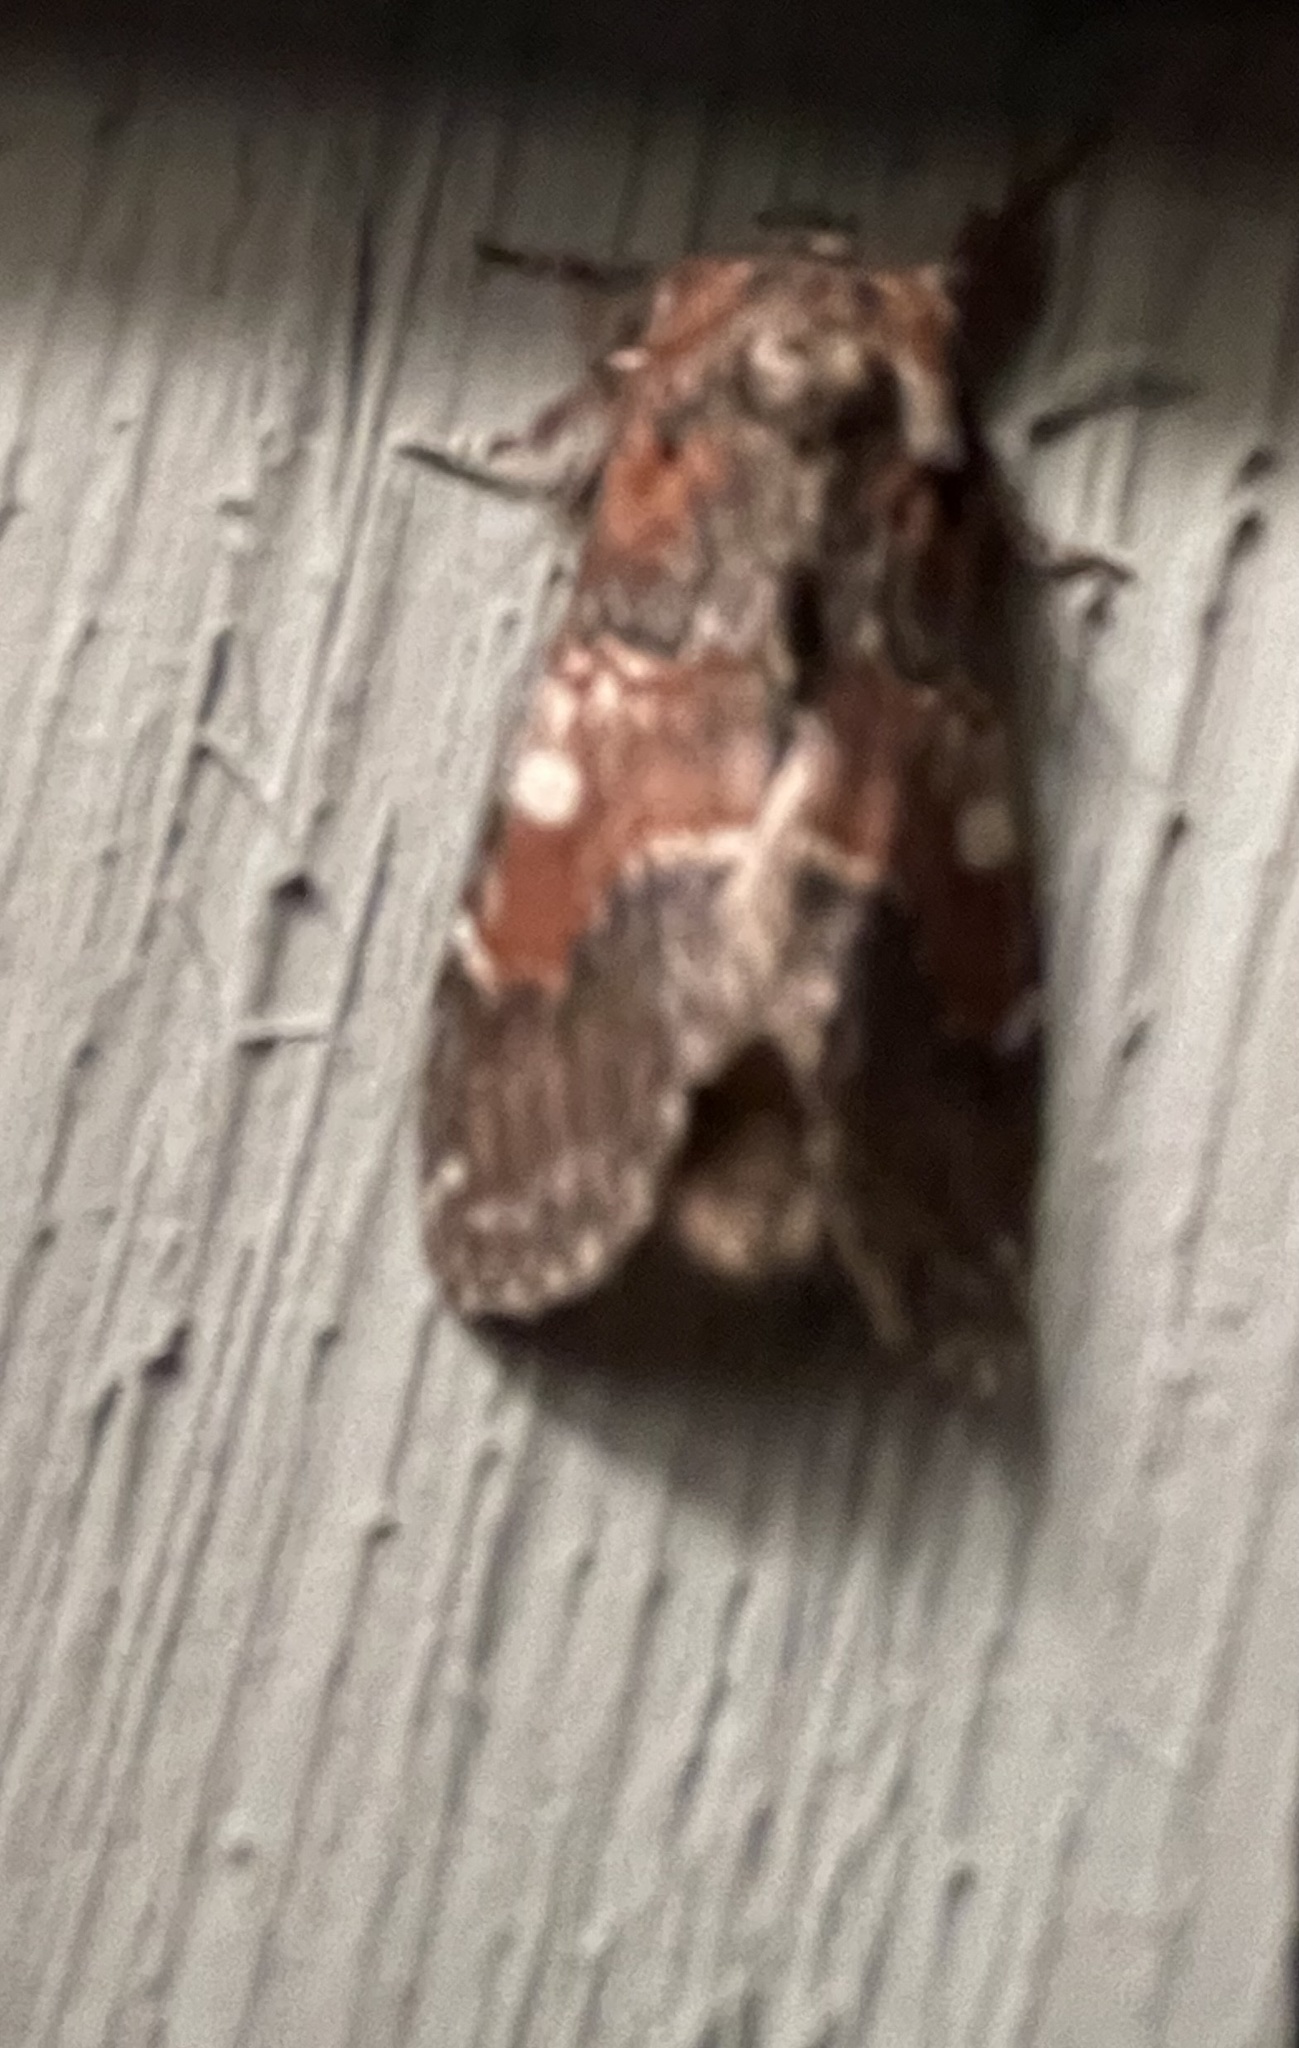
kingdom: Animalia
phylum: Arthropoda
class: Insecta
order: Lepidoptera
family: Notodontidae
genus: Peridea
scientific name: Peridea ferruginea
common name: Chocolate prominent
